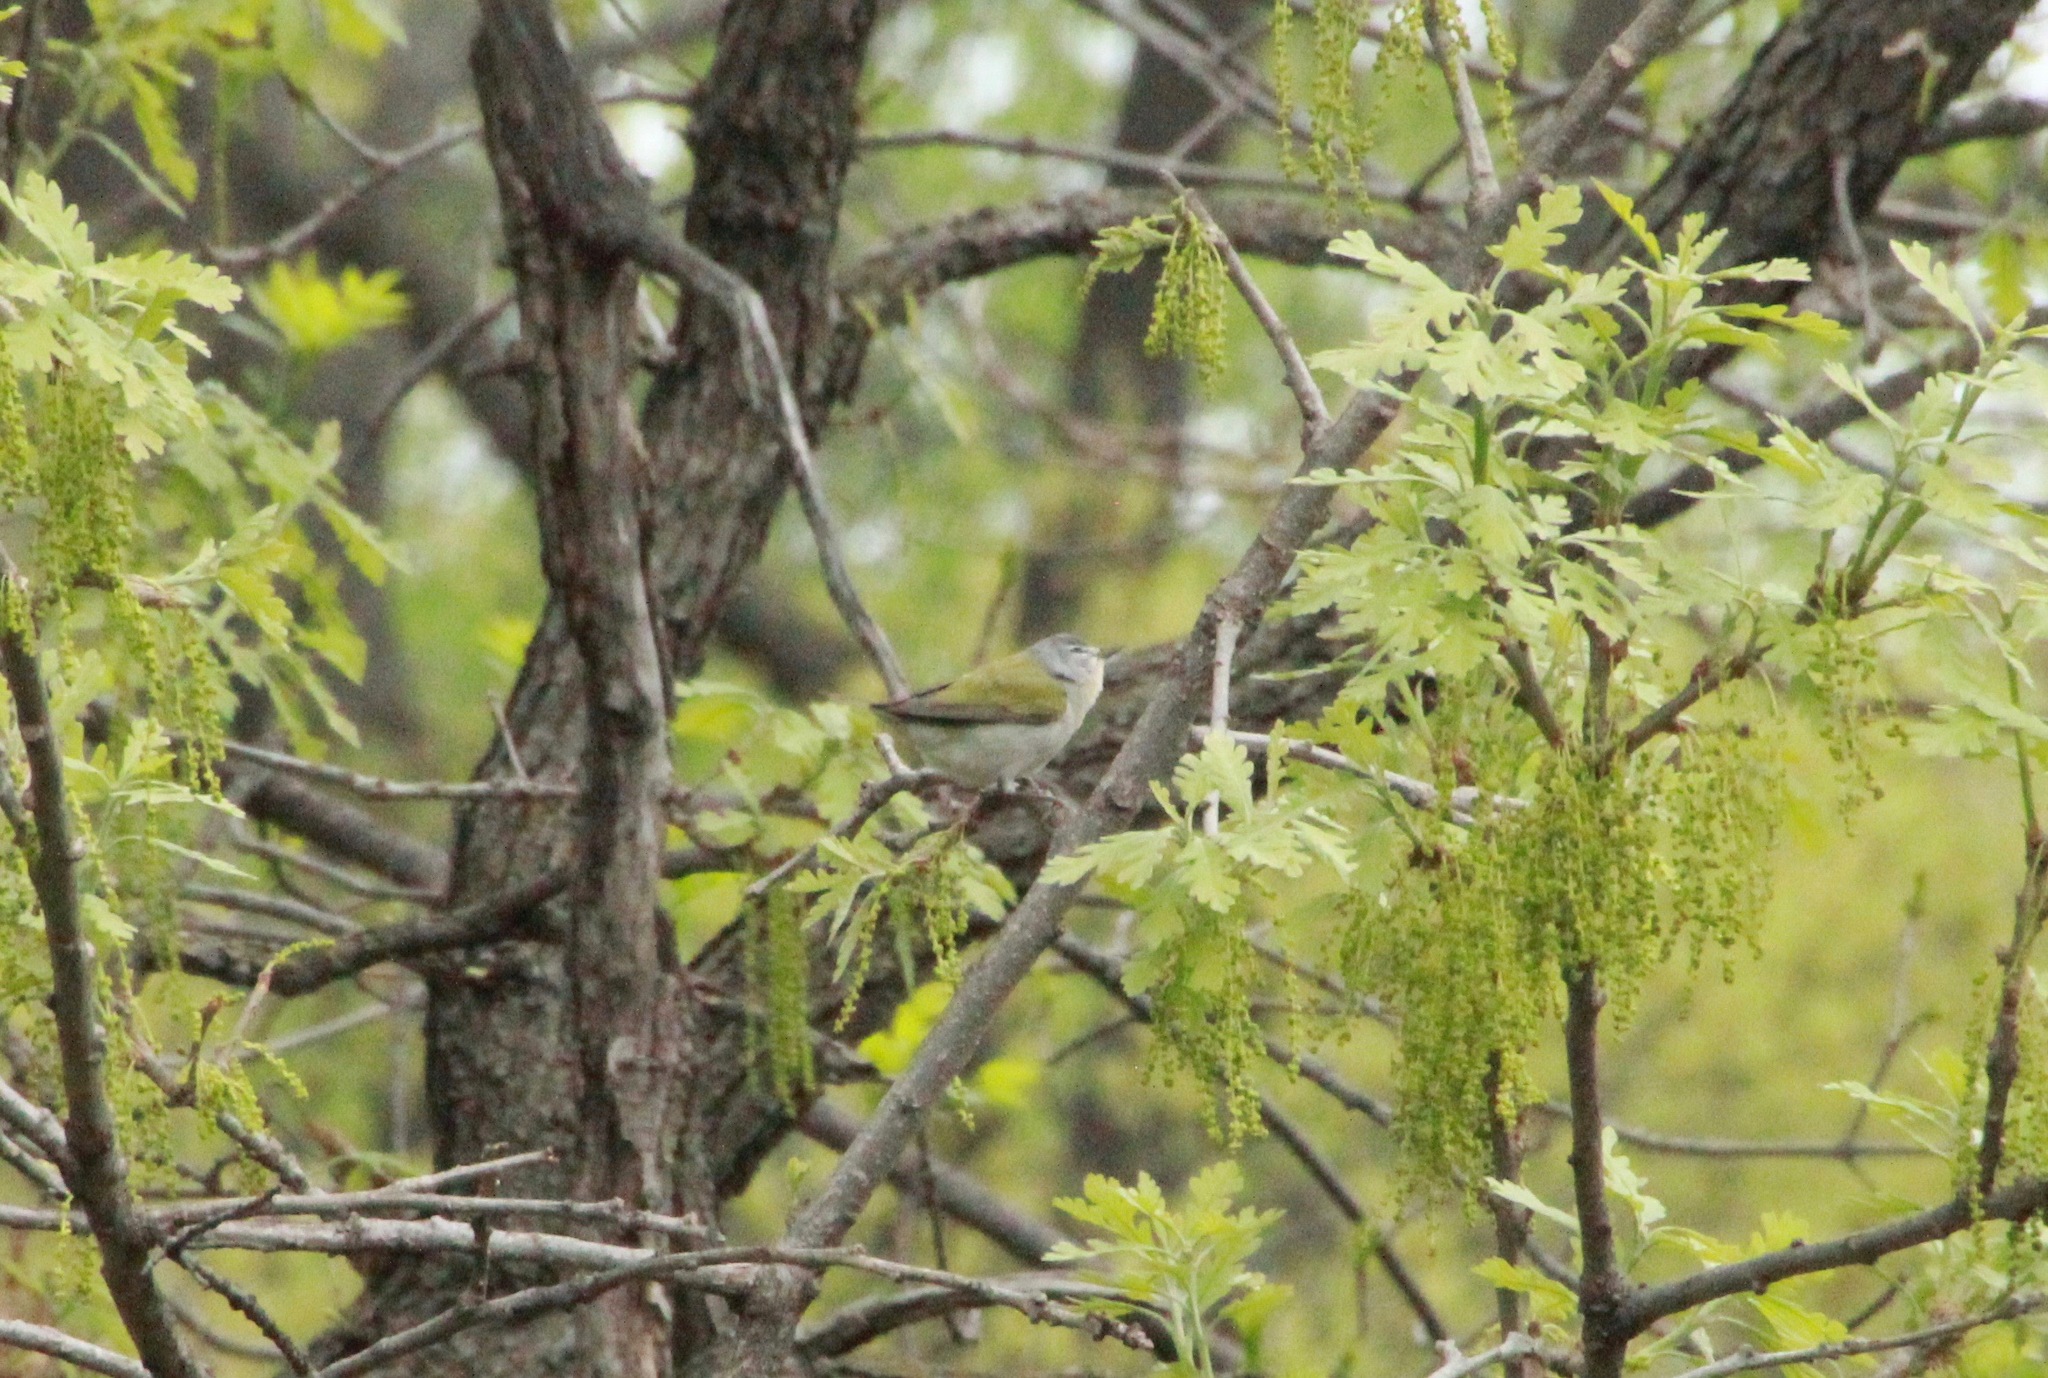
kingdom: Animalia
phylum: Chordata
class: Aves
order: Passeriformes
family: Parulidae
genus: Leiothlypis
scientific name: Leiothlypis peregrina
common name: Tennessee warbler
